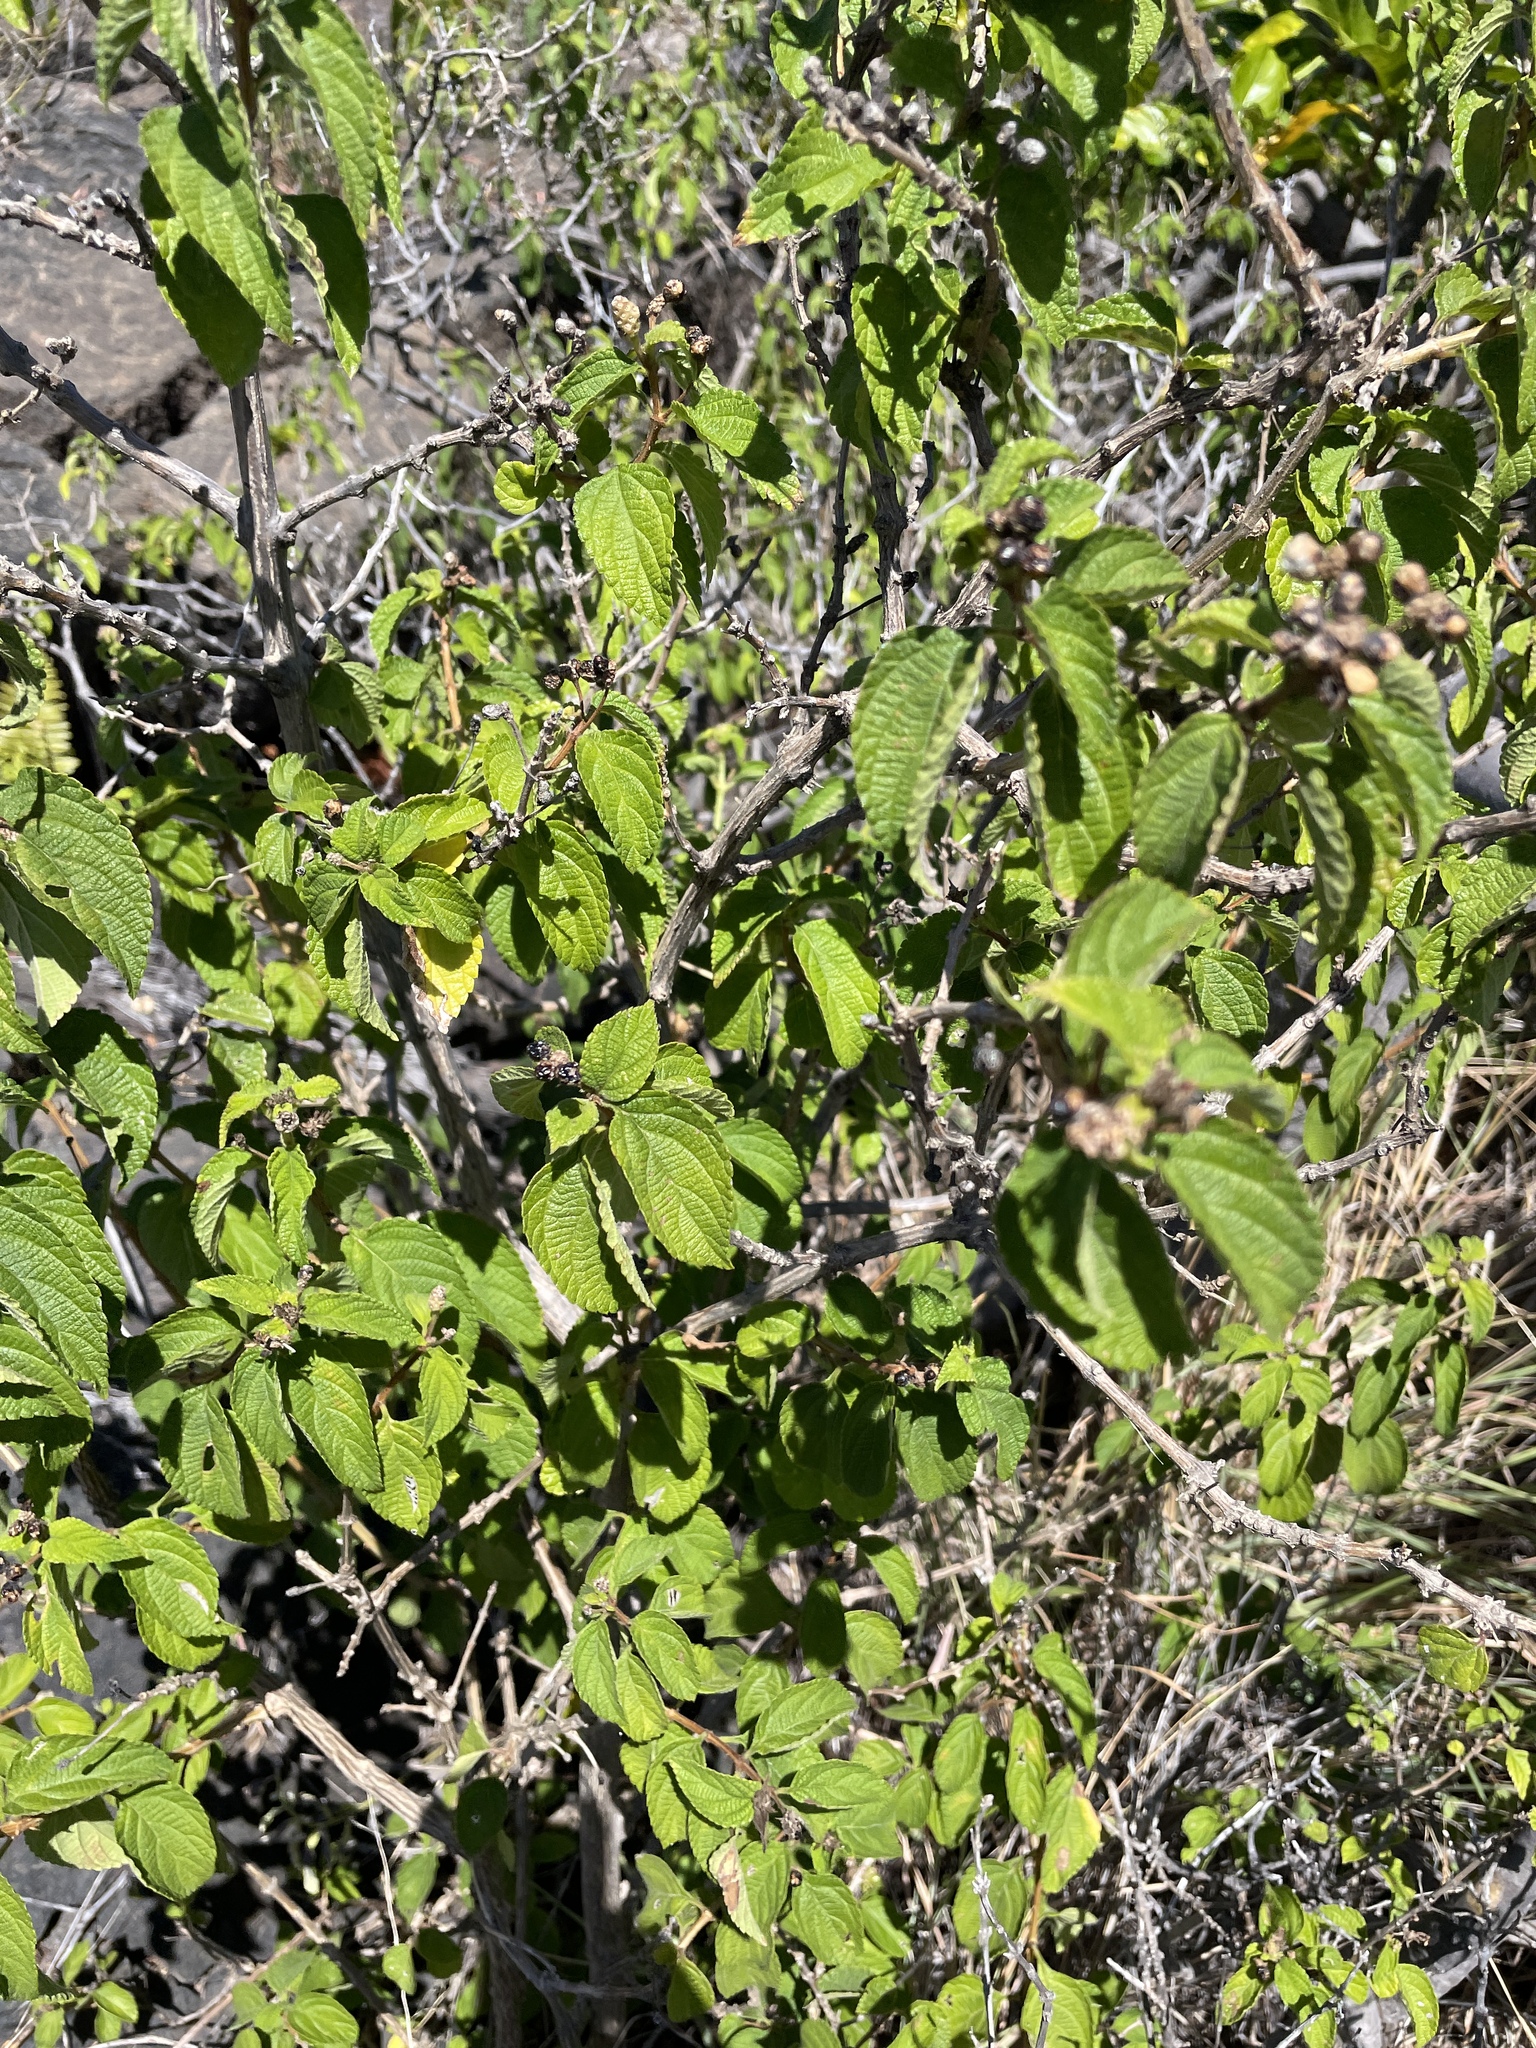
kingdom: Plantae
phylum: Tracheophyta
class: Magnoliopsida
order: Lamiales
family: Verbenaceae
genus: Lantana
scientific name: Lantana camara
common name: Lantana
